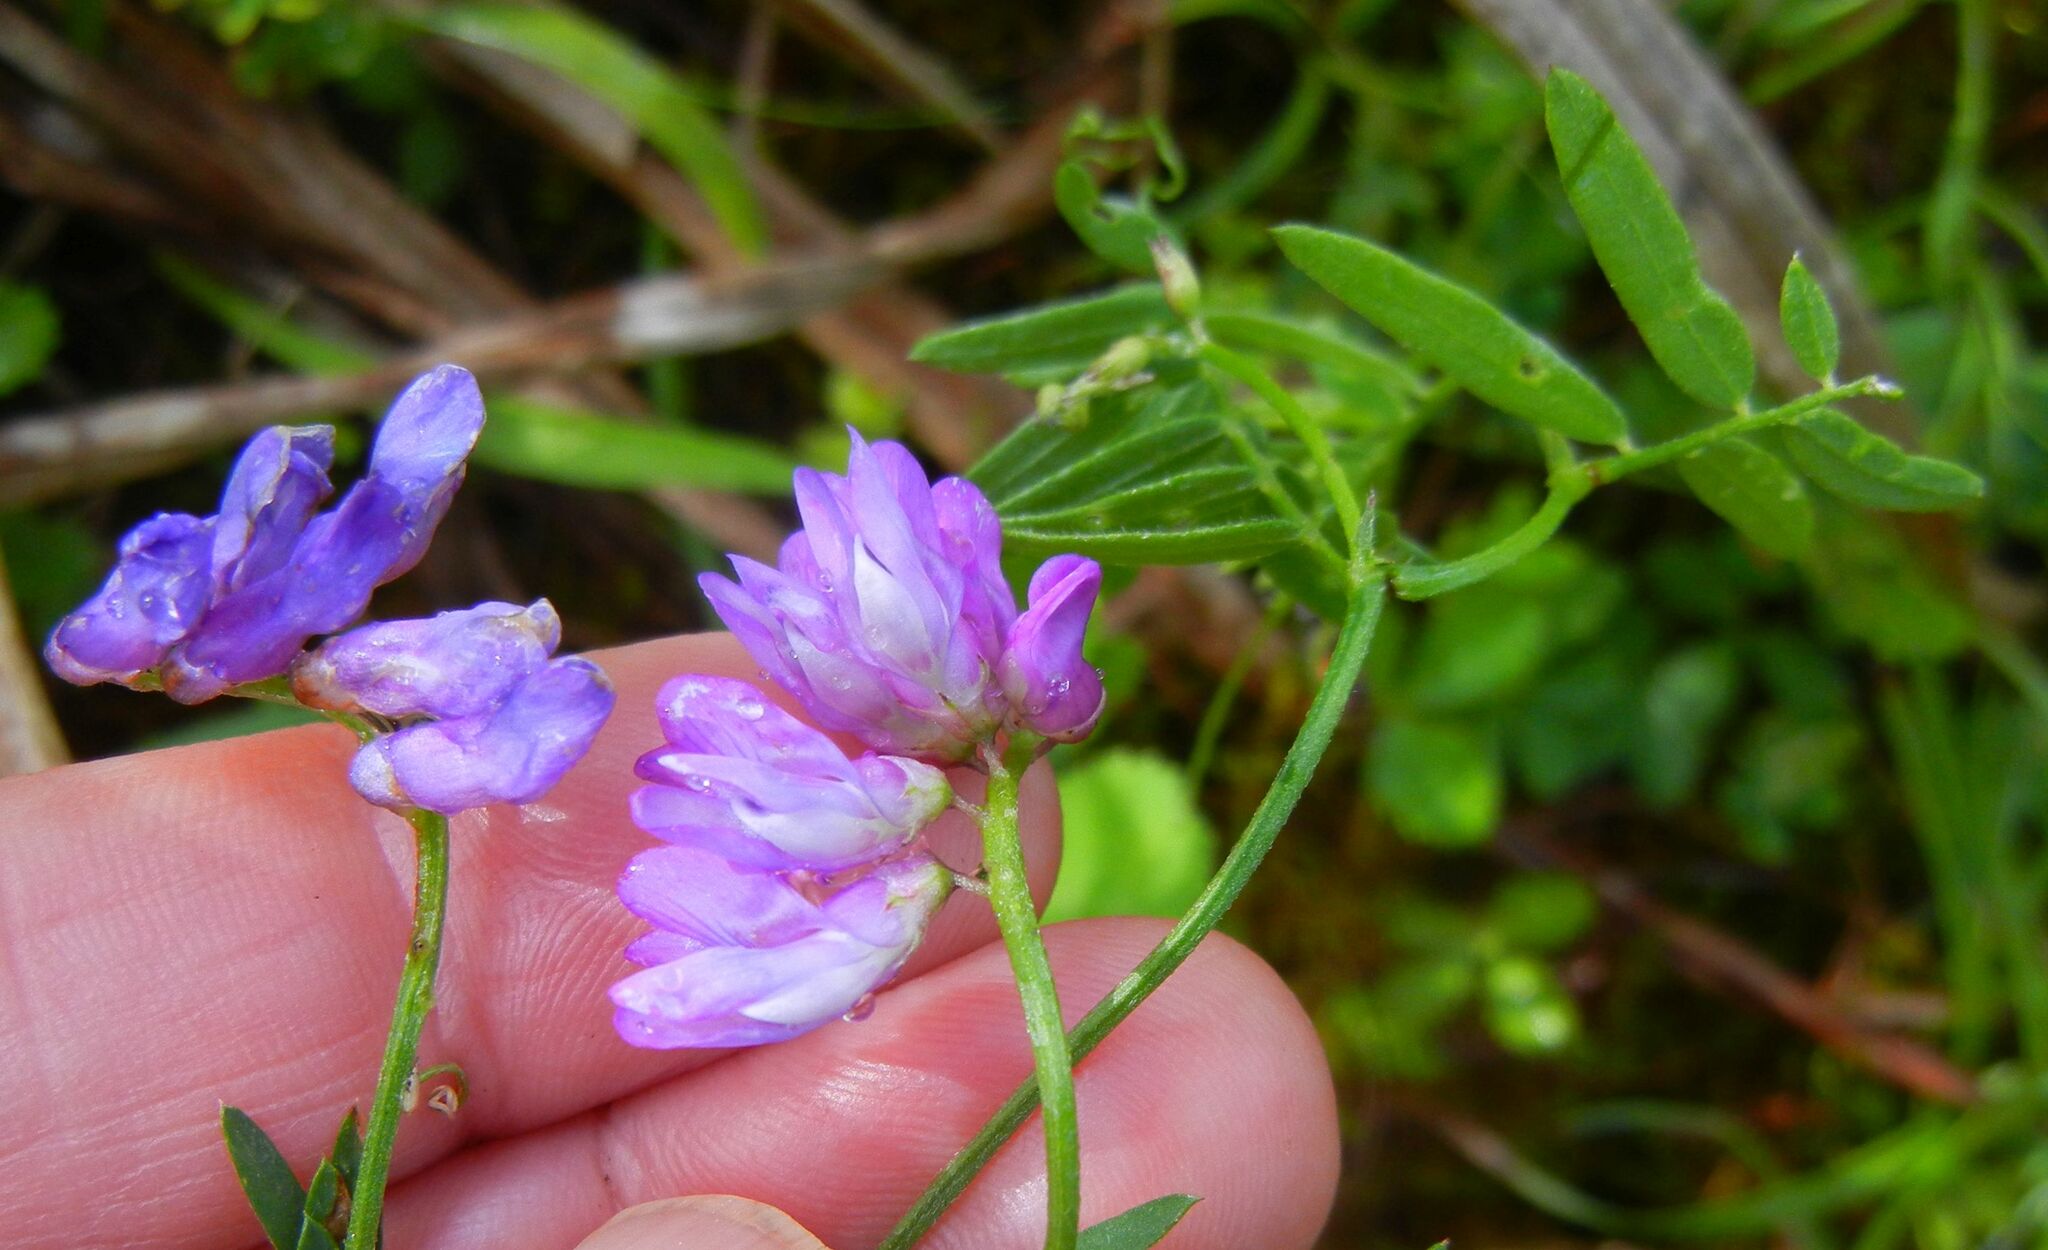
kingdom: Plantae
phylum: Tracheophyta
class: Magnoliopsida
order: Fabales
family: Fabaceae
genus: Vicia
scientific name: Vicia cracca
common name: Bird vetch
